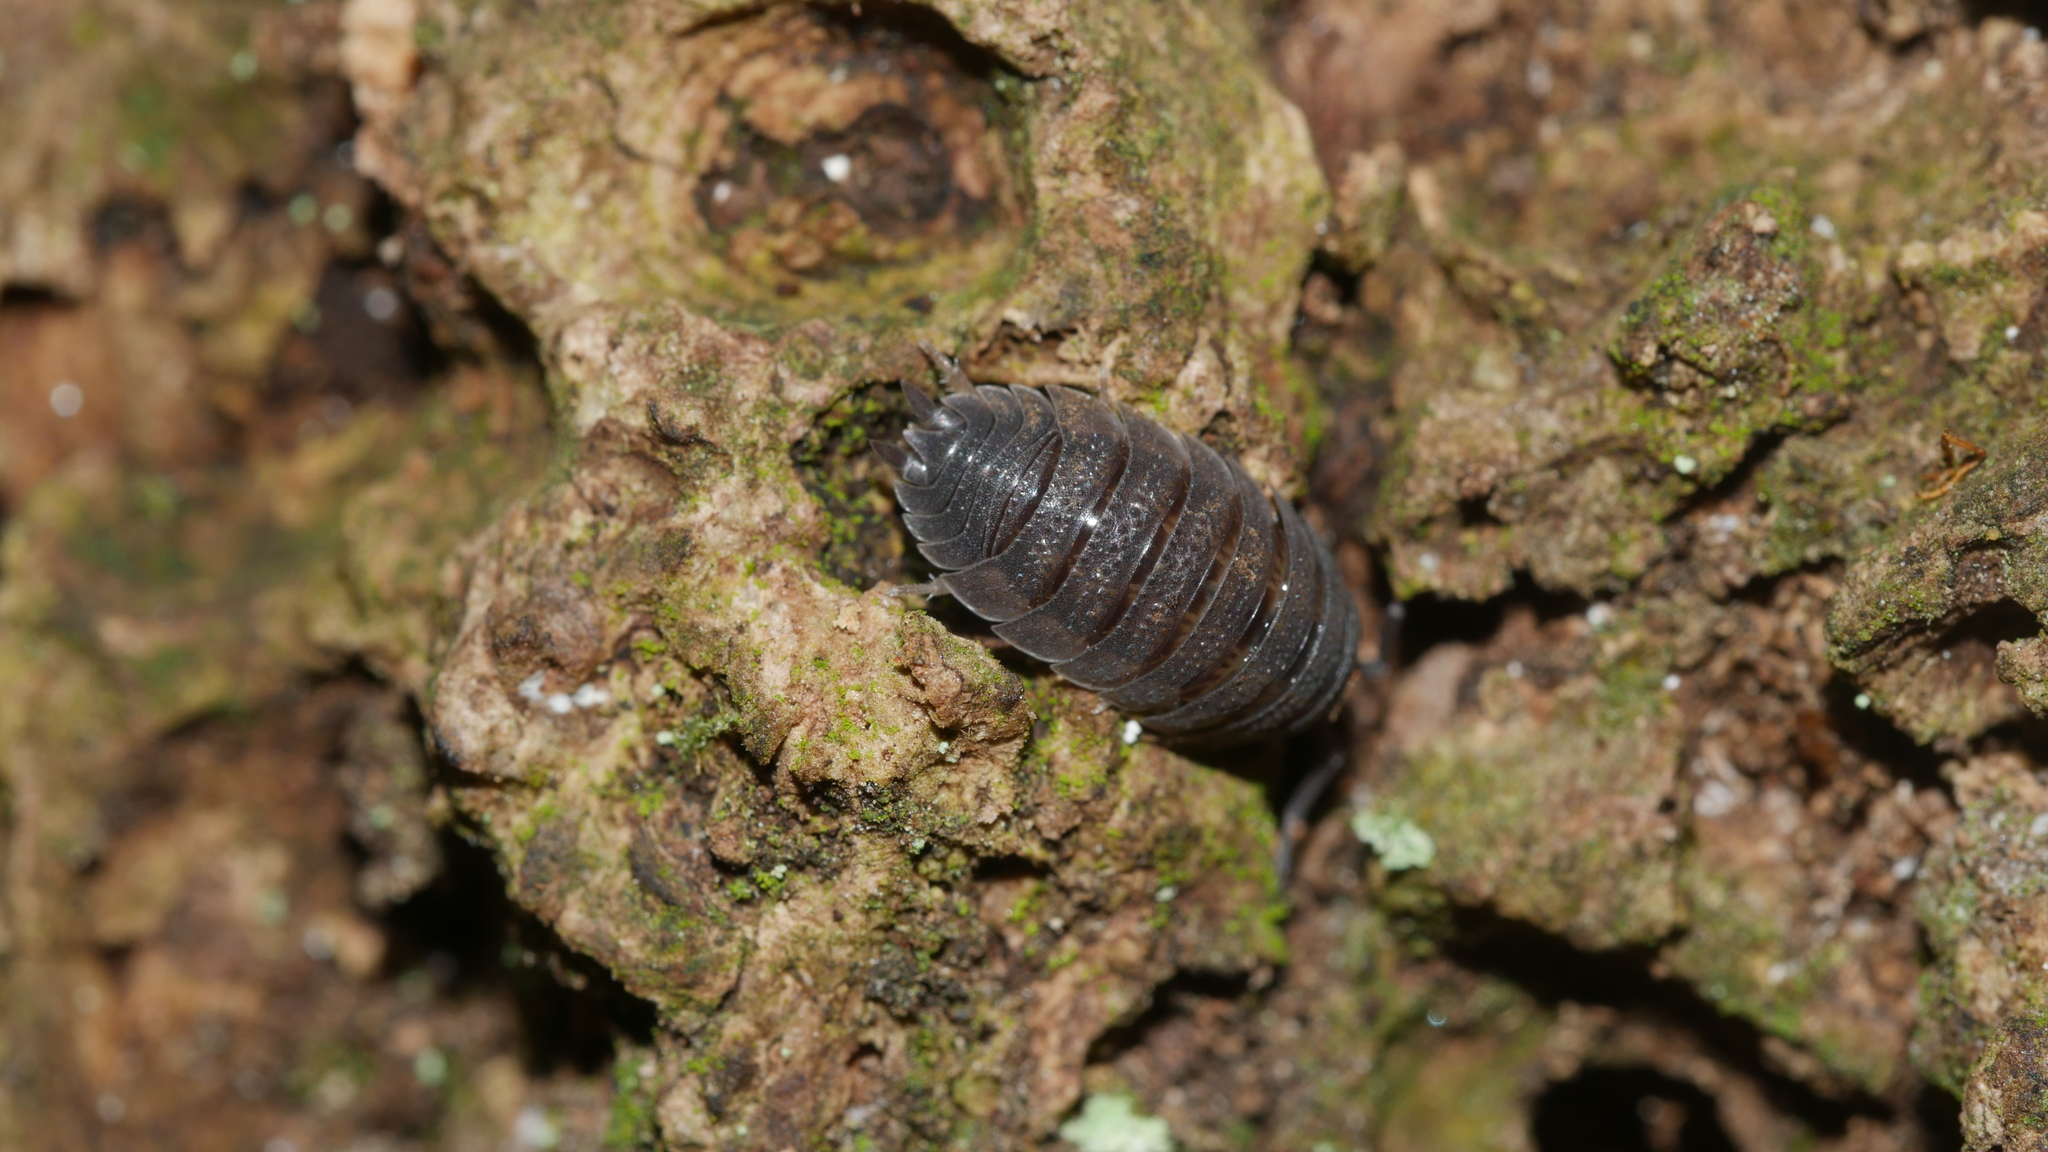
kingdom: Animalia
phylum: Arthropoda
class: Malacostraca
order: Isopoda
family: Porcellionidae
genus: Porcellio
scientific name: Porcellio scaber
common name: Common rough woodlouse
